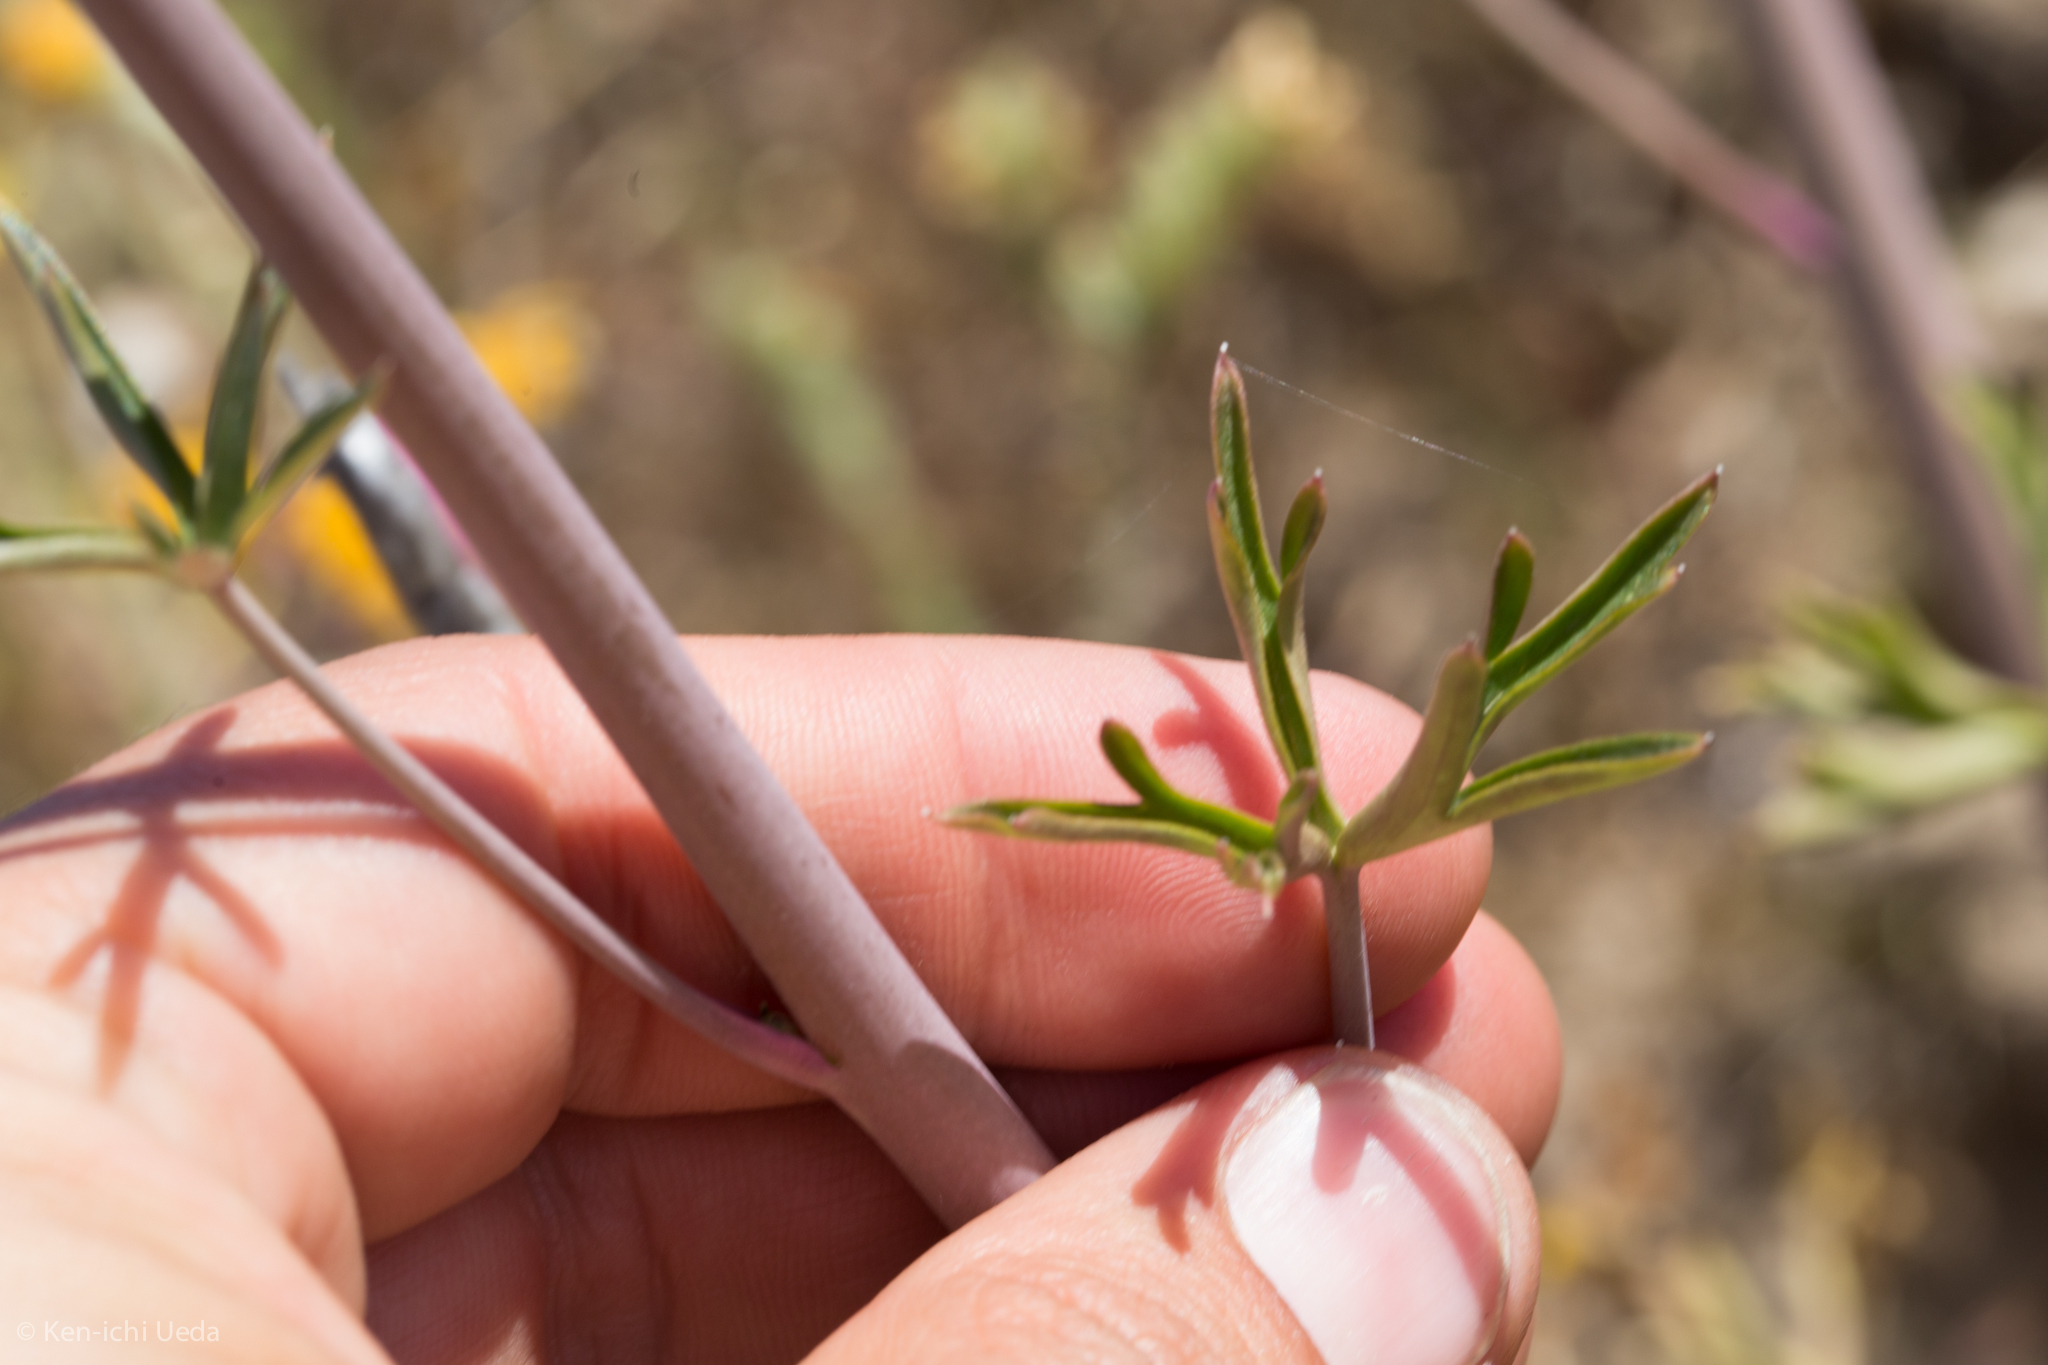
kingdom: Plantae
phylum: Tracheophyta
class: Magnoliopsida
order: Ranunculales
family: Ranunculaceae
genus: Delphinium
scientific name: Delphinium gypsophilum
